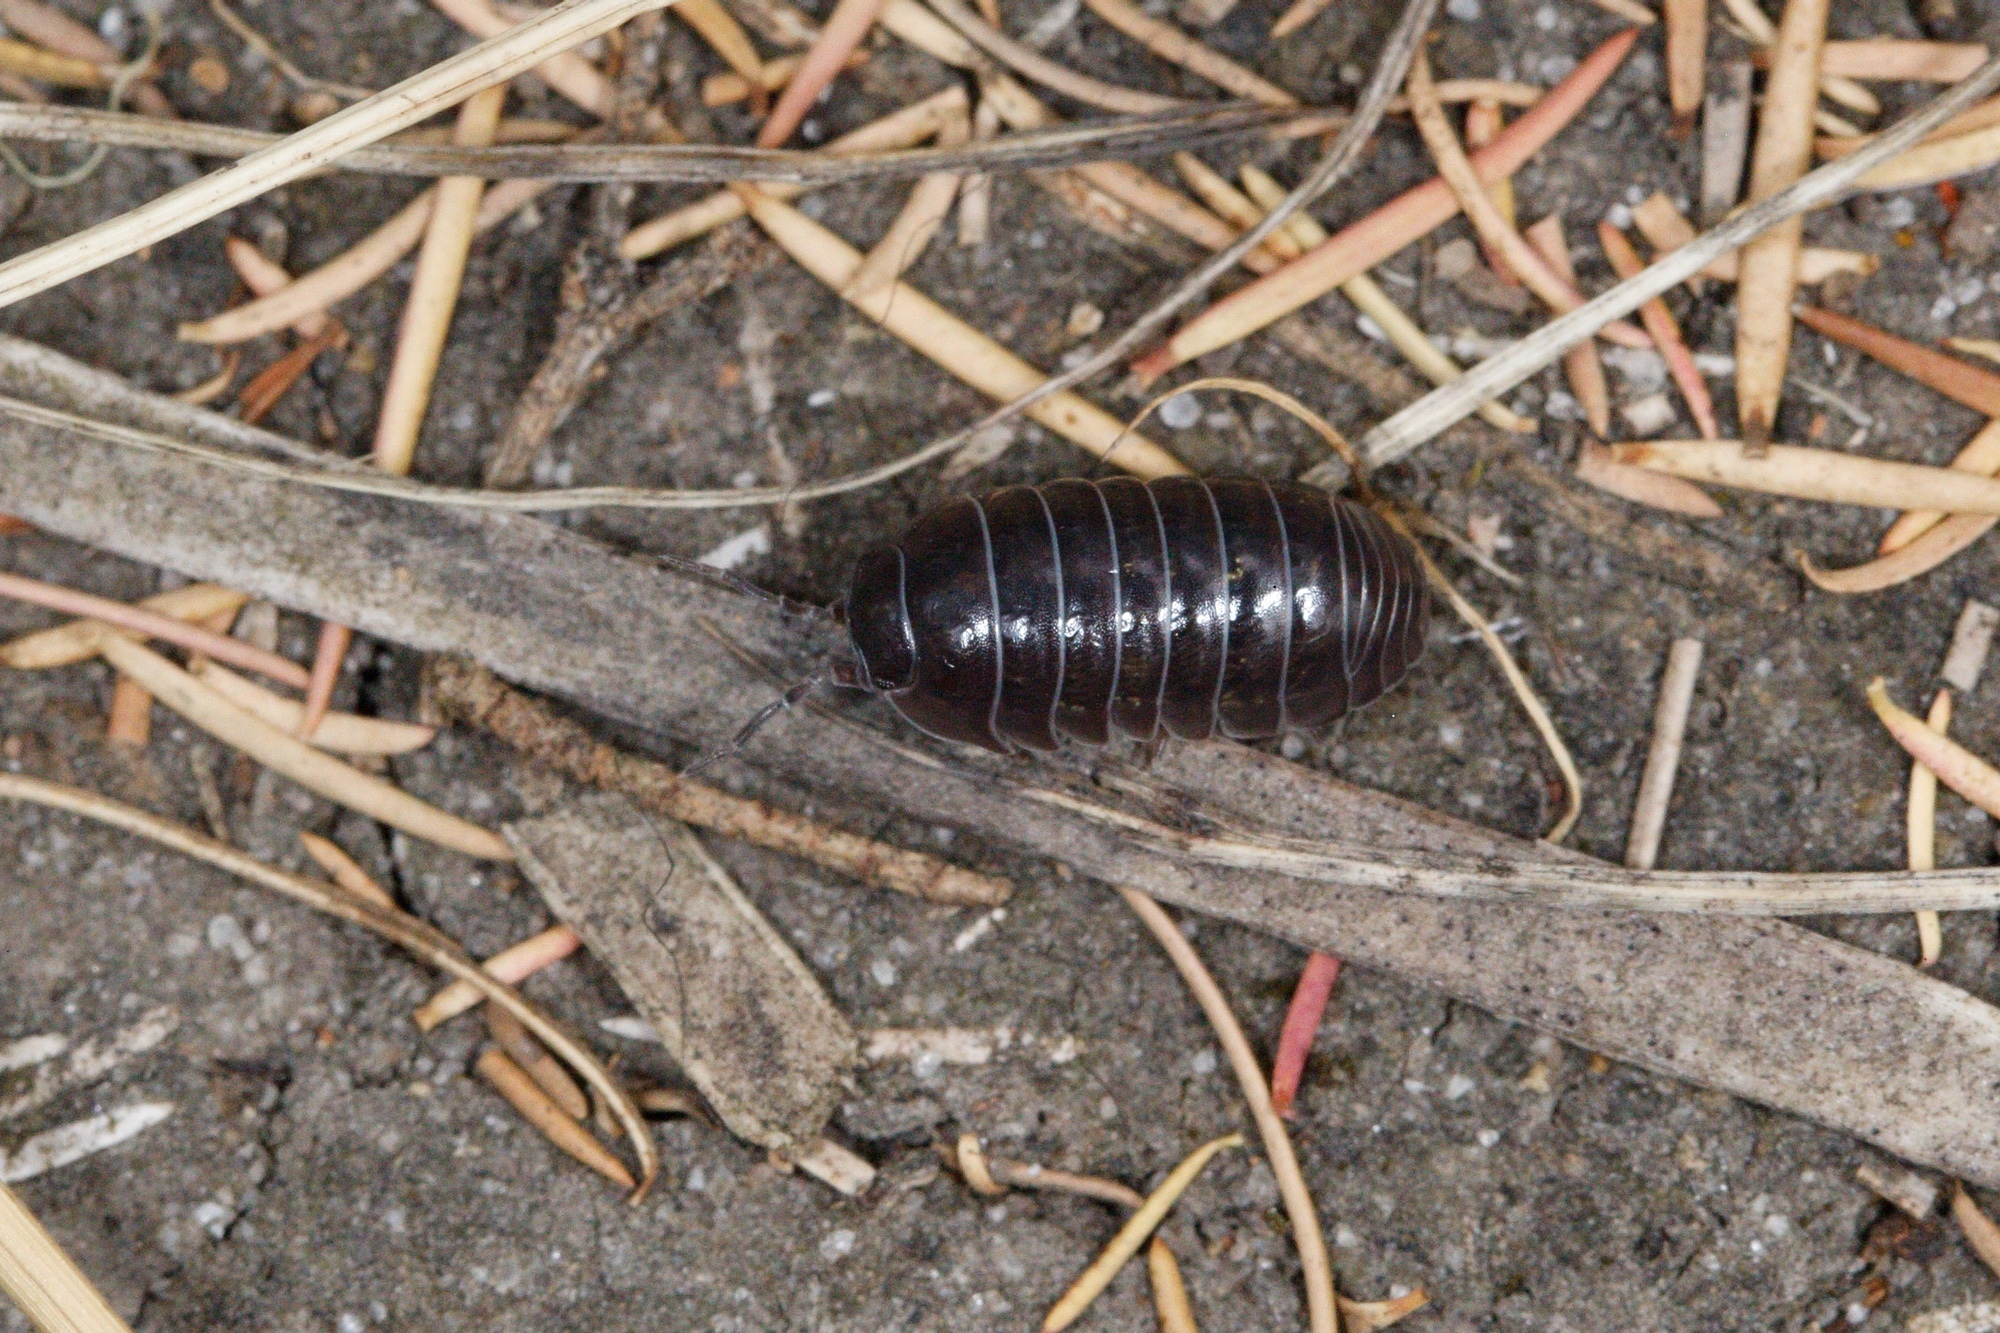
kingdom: Animalia
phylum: Arthropoda
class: Malacostraca
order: Isopoda
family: Armadillidiidae
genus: Armadillidium
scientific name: Armadillidium vulgare
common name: Common pill woodlouse
